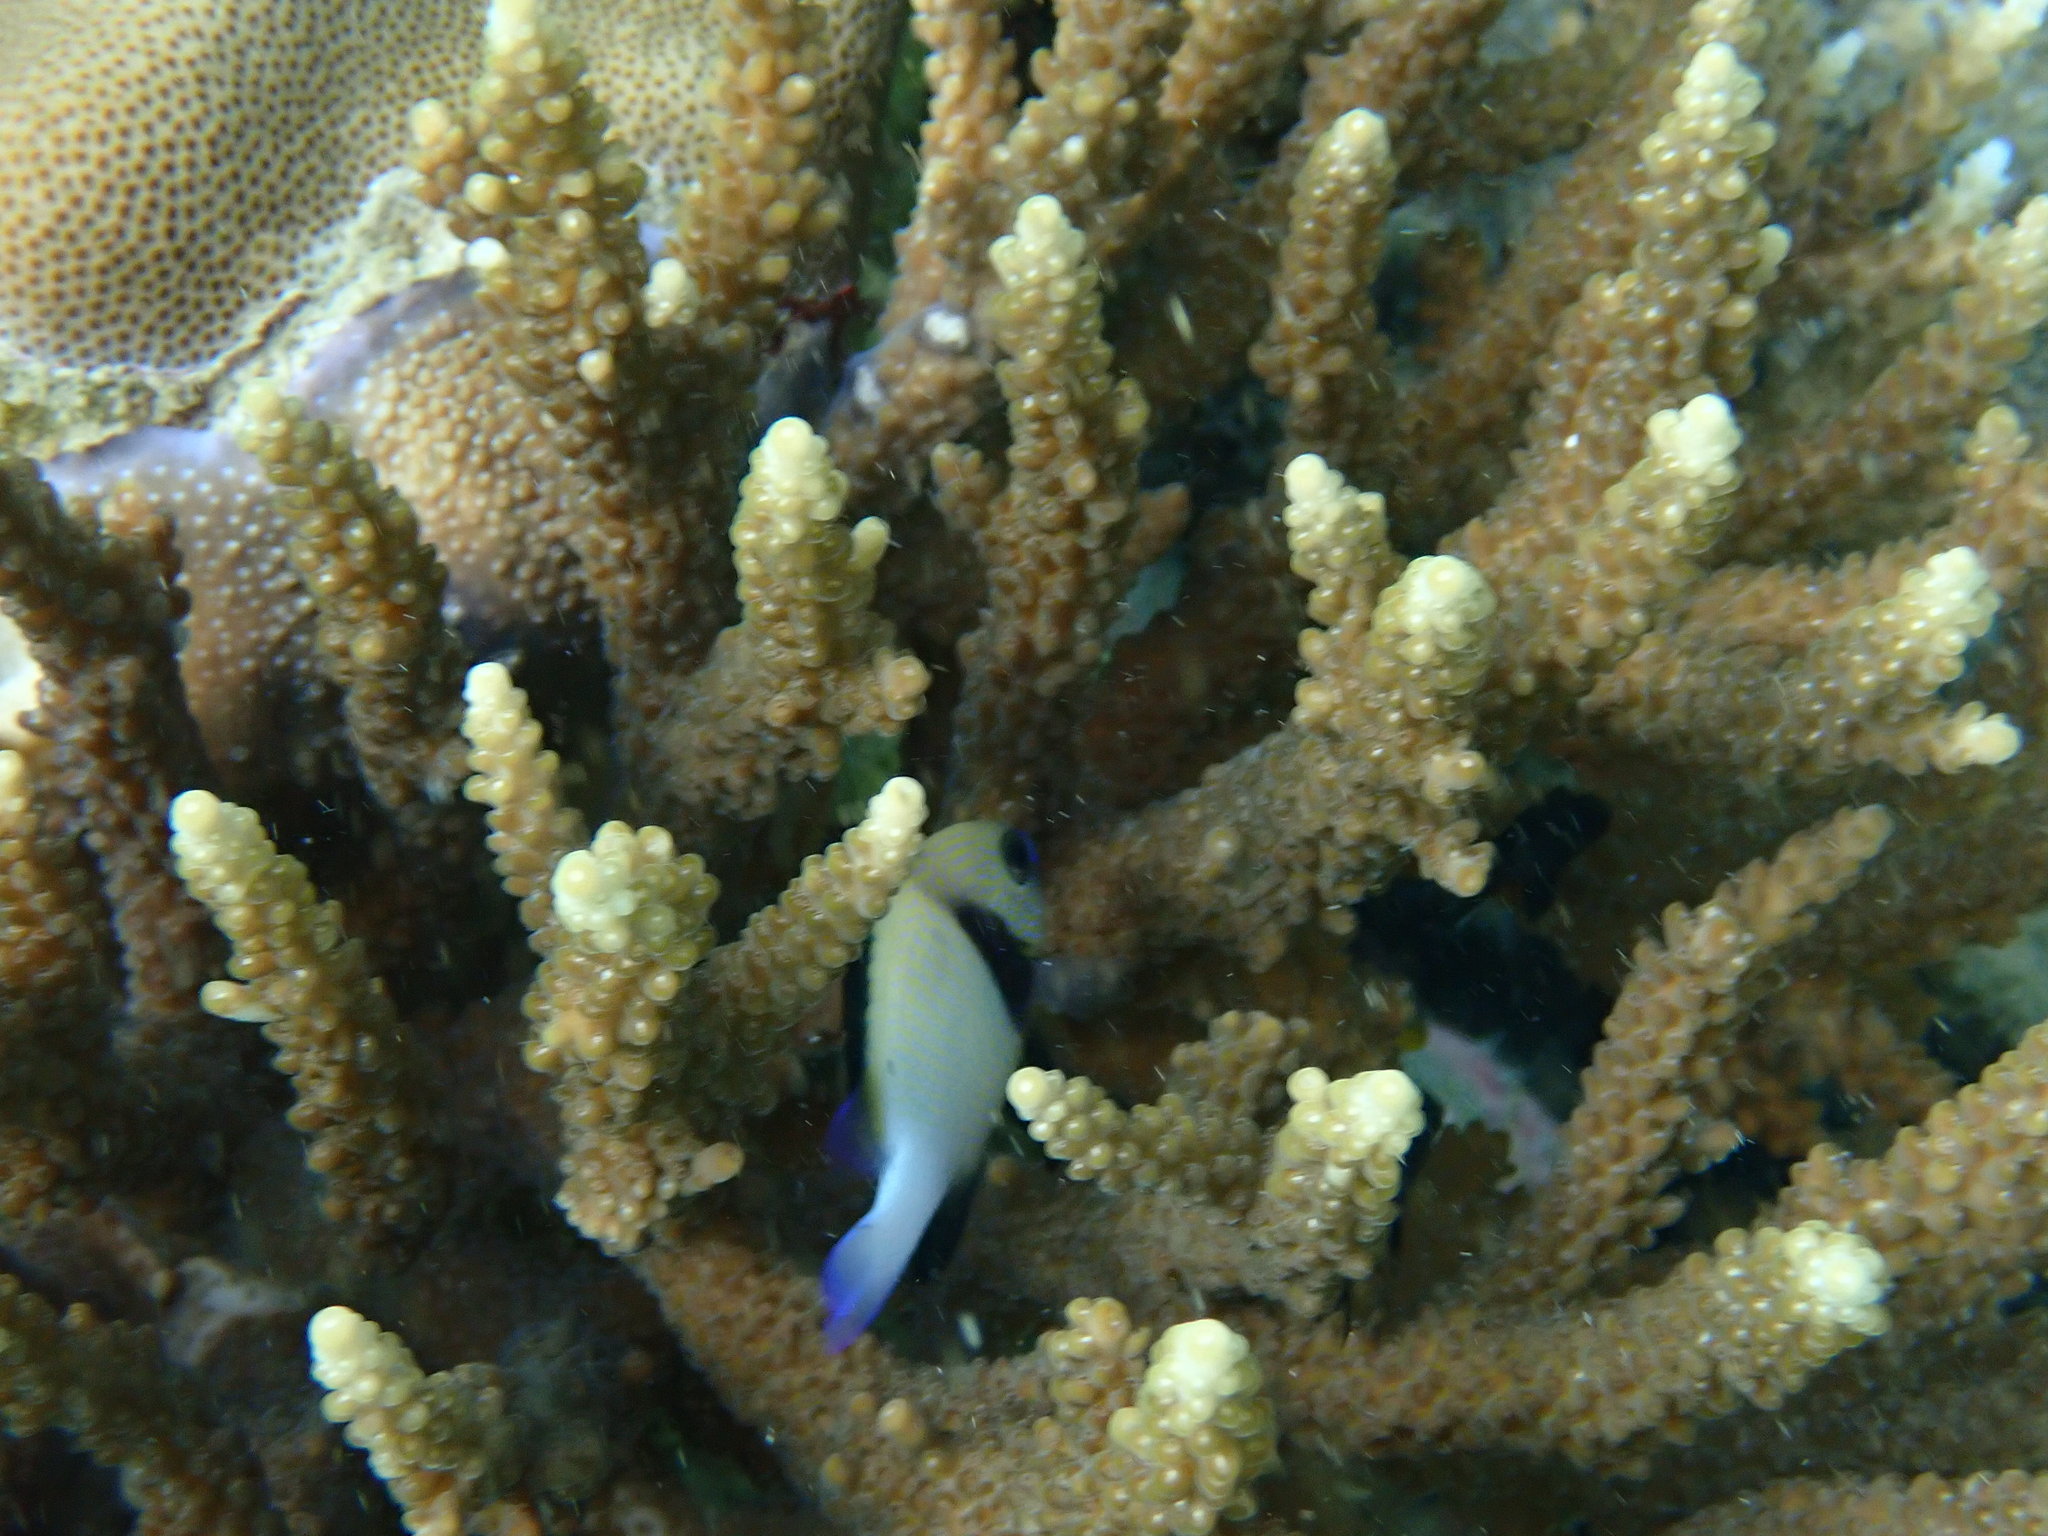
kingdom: Animalia
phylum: Chordata
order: Perciformes
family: Pomacentridae
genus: Dascyllus
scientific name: Dascyllus carneus
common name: Indian dascyllus
